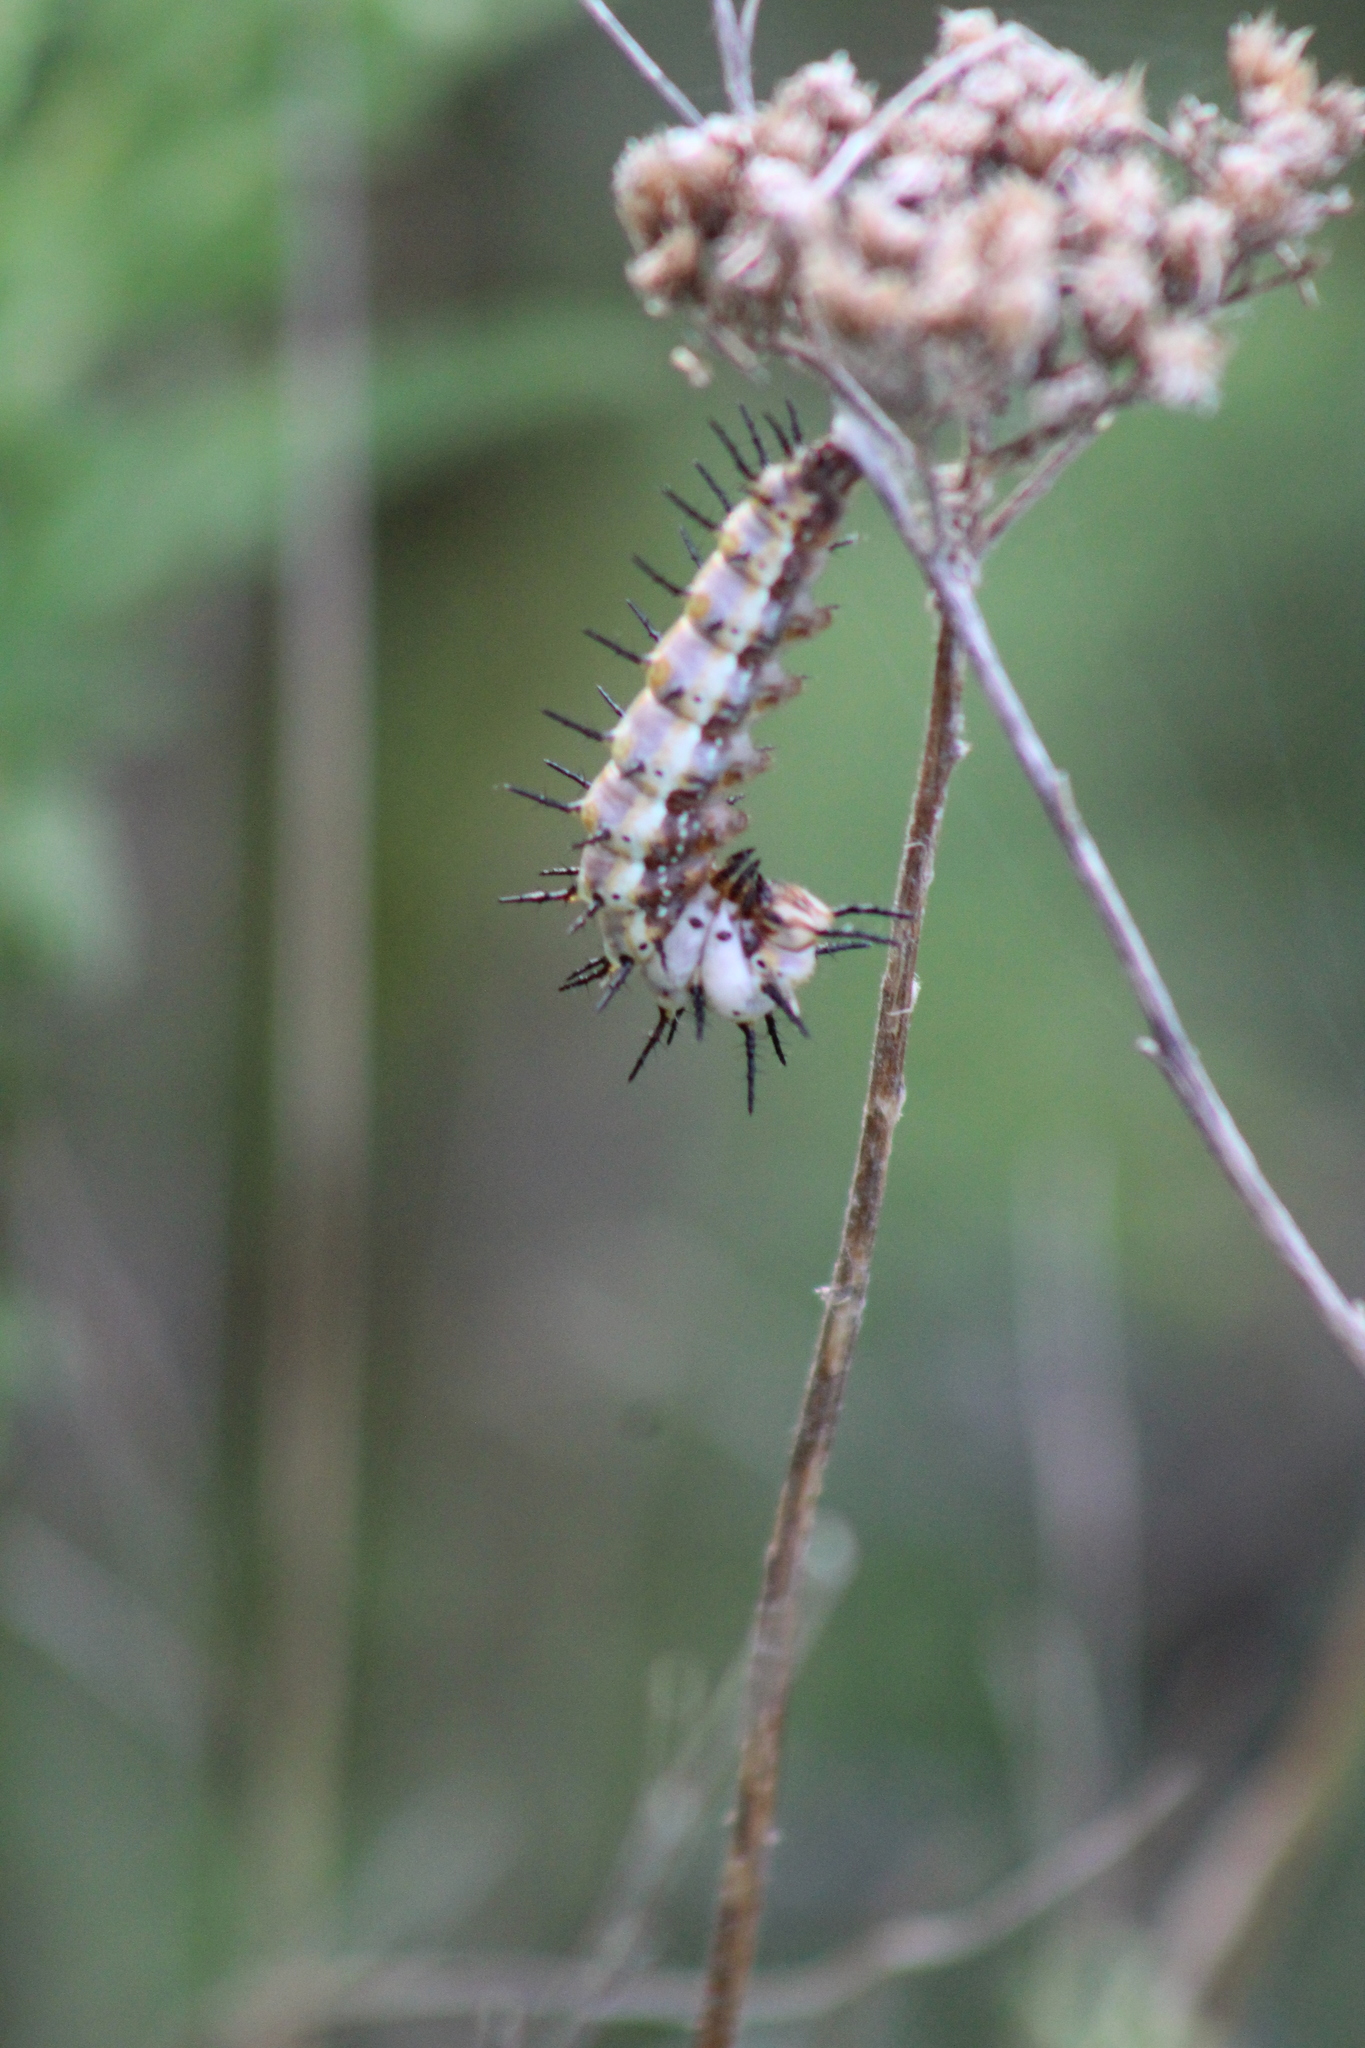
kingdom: Animalia
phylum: Arthropoda
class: Insecta
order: Lepidoptera
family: Nymphalidae
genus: Dione
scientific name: Dione vanillae
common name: Gulf fritillary
